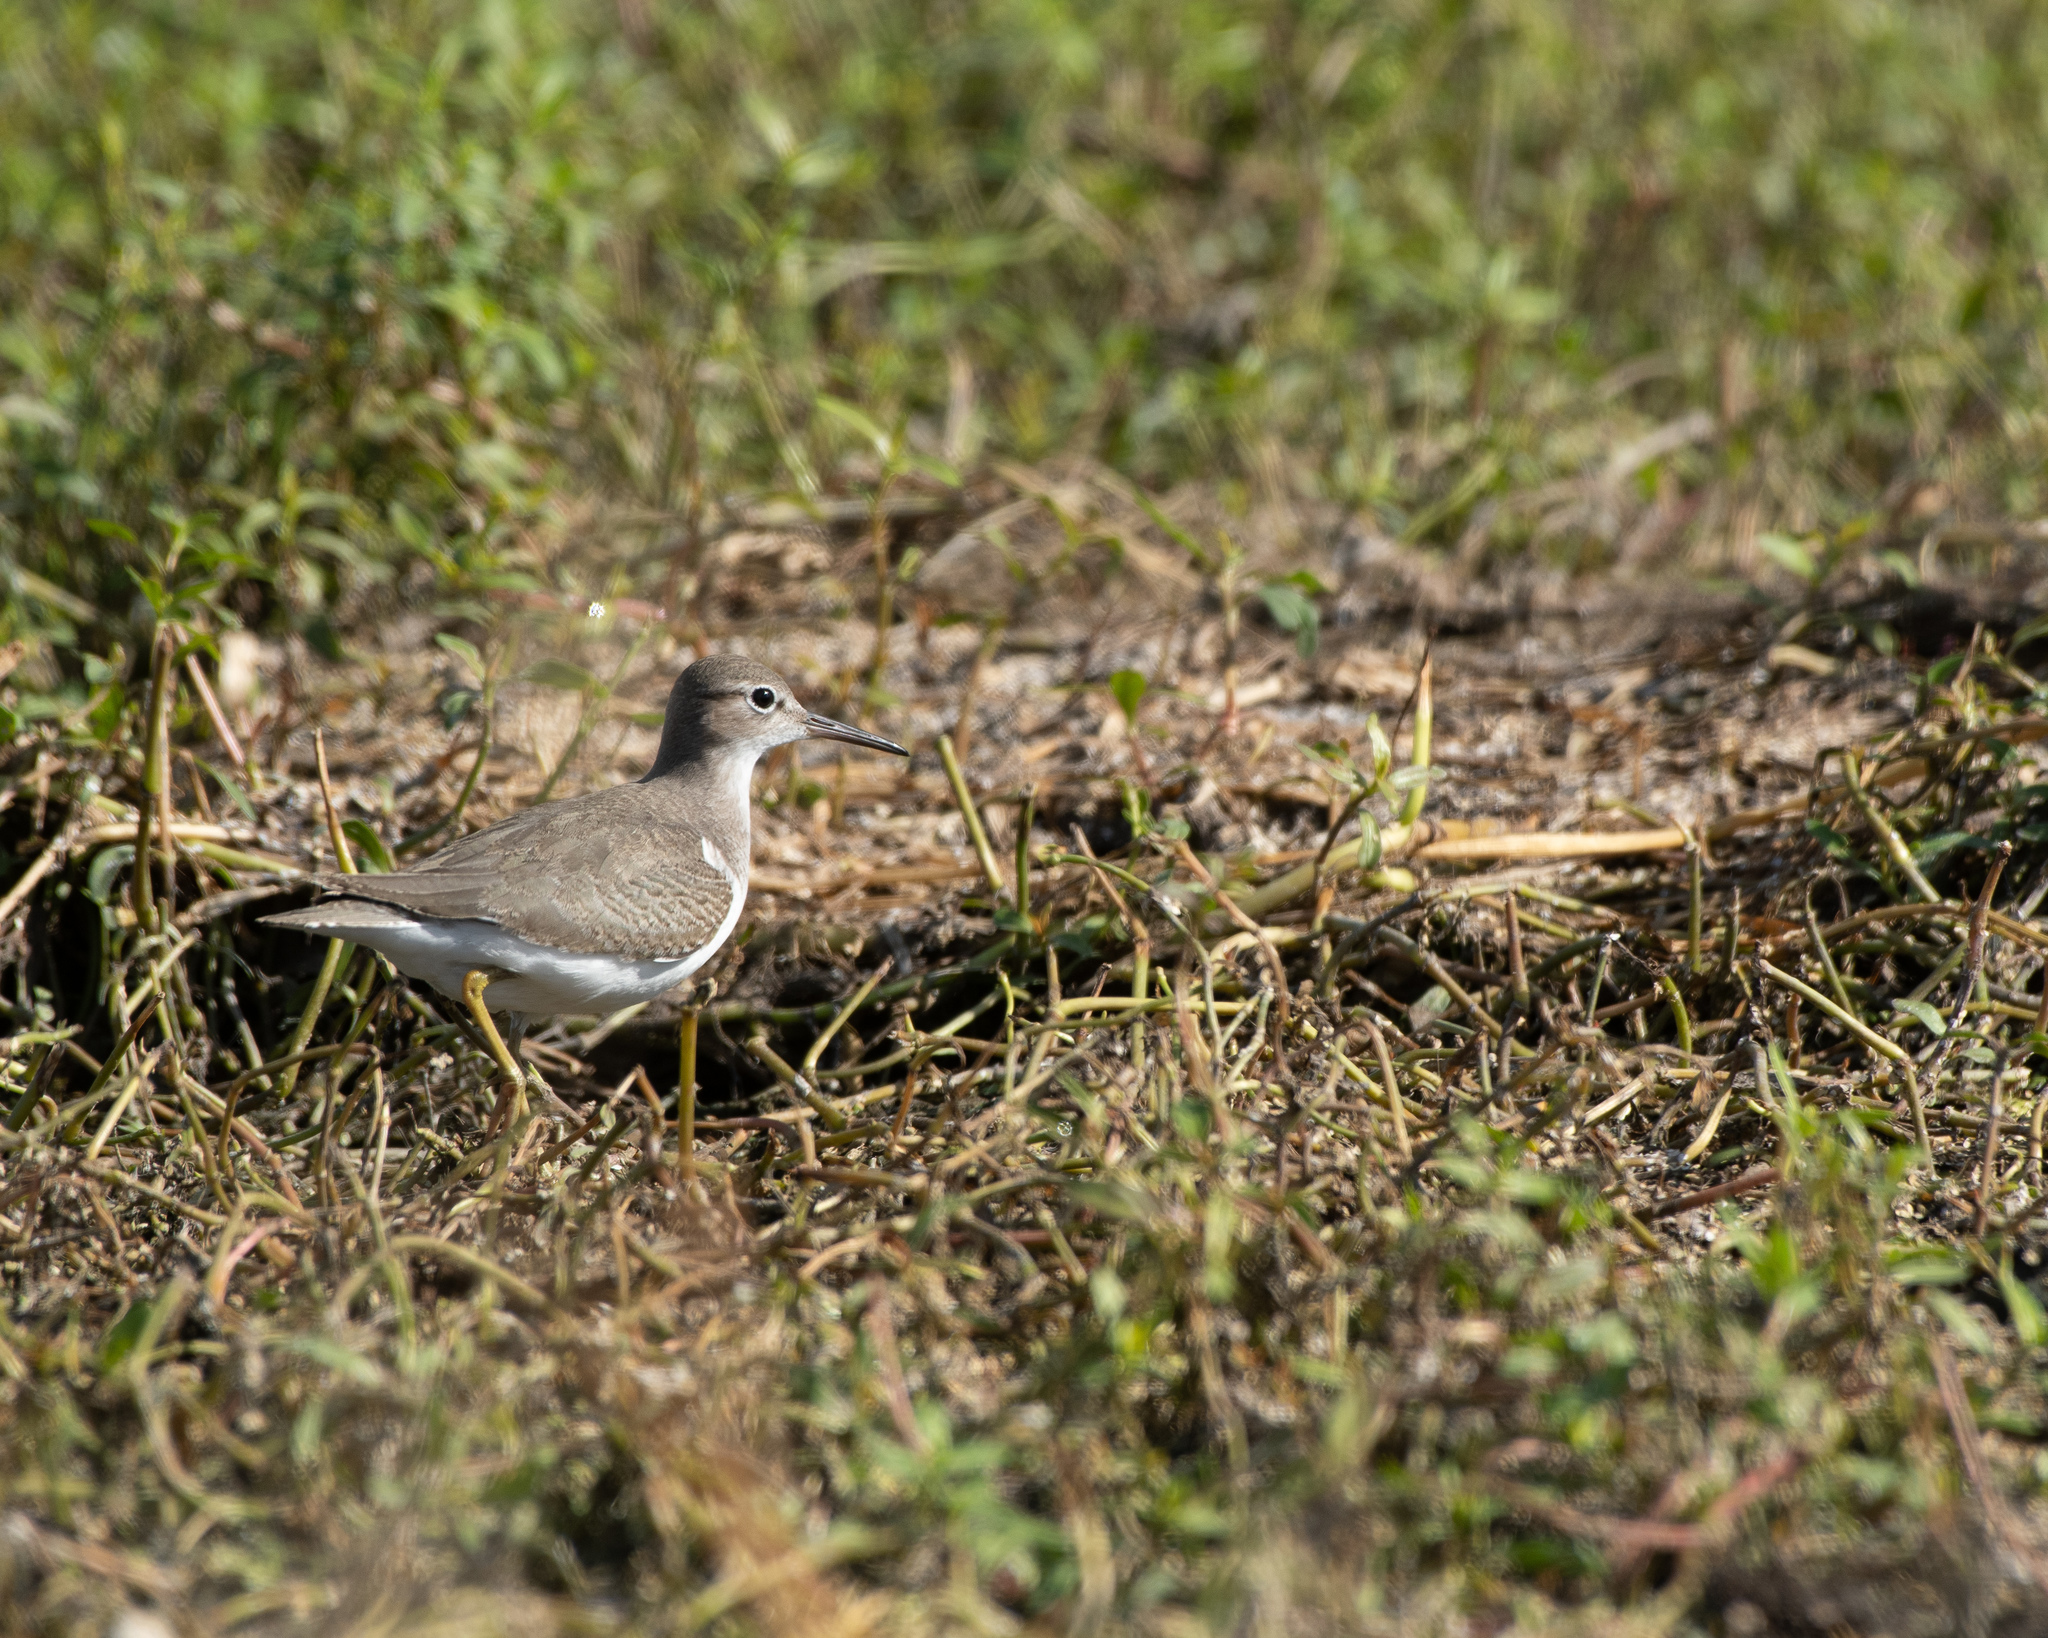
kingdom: Animalia
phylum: Chordata
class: Aves
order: Charadriiformes
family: Scolopacidae
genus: Actitis
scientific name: Actitis macularius
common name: Spotted sandpiper
